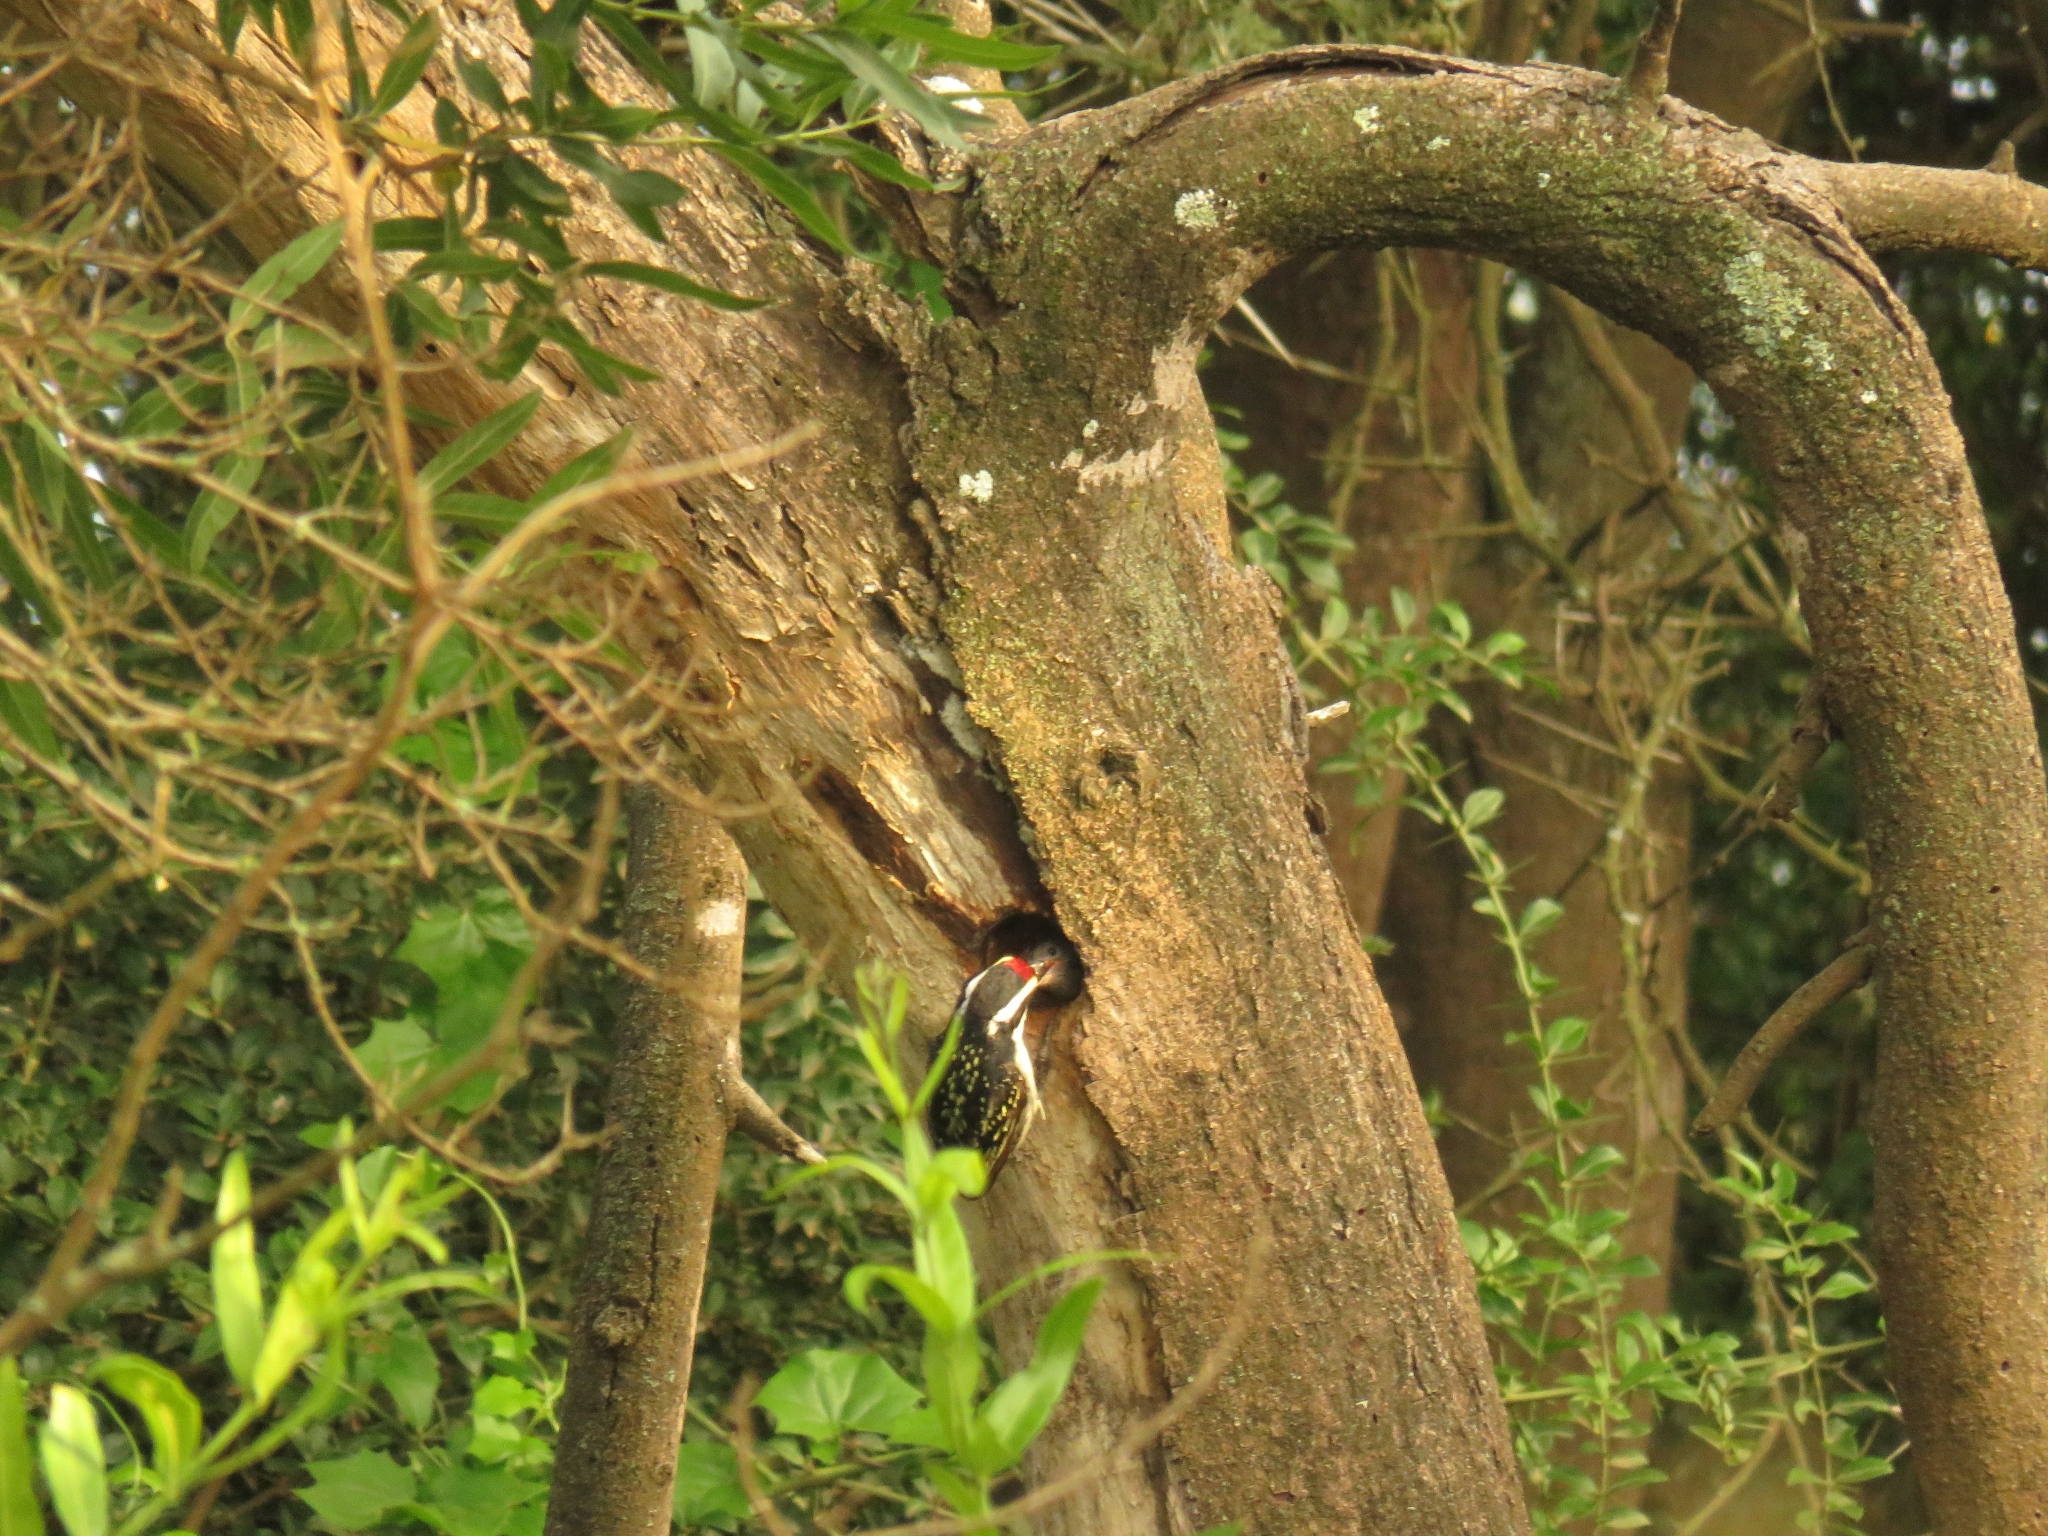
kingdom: Animalia
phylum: Chordata
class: Aves
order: Piciformes
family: Lybiidae
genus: Tricholaema
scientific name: Tricholaema leucomelas
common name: Acacia pied barbet
